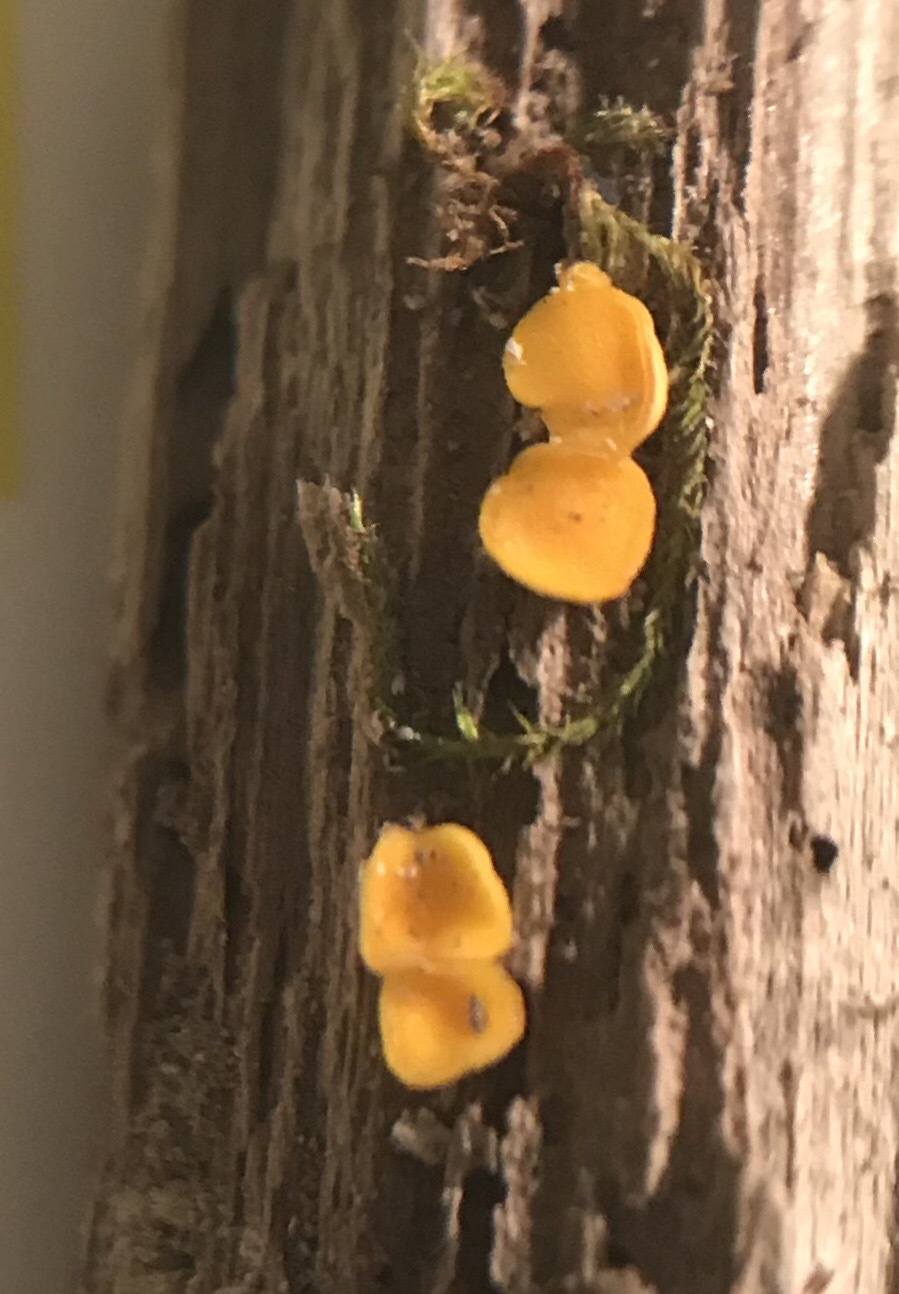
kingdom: Fungi
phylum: Ascomycota
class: Leotiomycetes
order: Helotiales
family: Pezizellaceae
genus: Calycina
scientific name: Calycina citrina
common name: Yellow fairy cups
